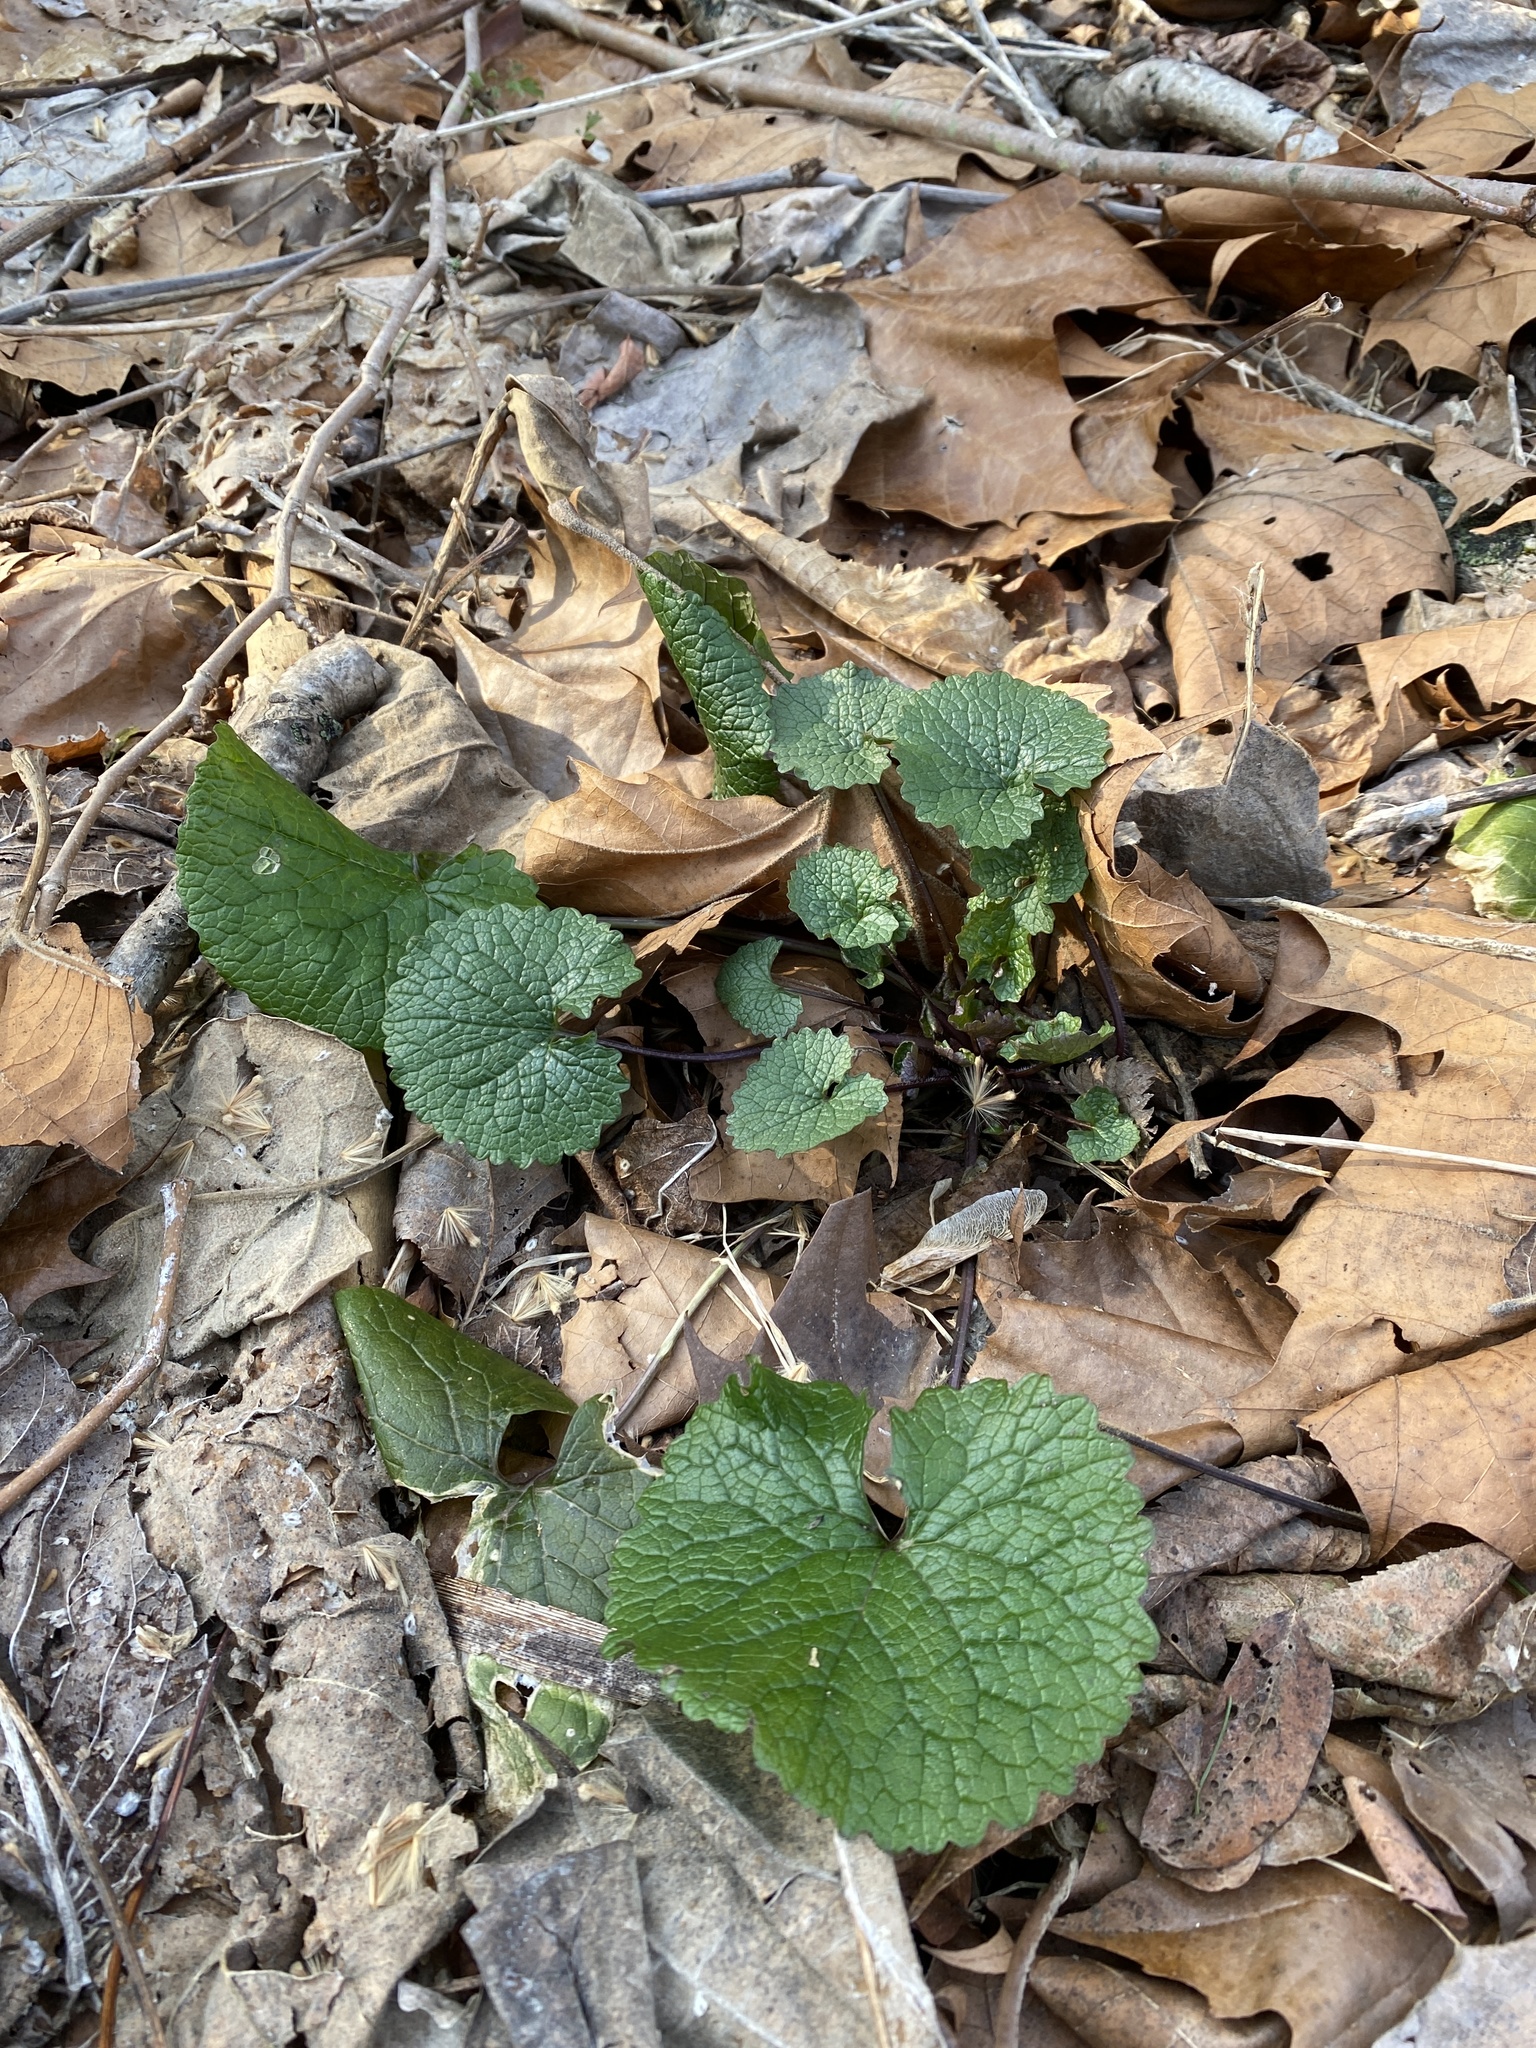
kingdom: Plantae
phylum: Tracheophyta
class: Magnoliopsida
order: Brassicales
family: Brassicaceae
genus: Alliaria
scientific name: Alliaria petiolata
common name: Garlic mustard
